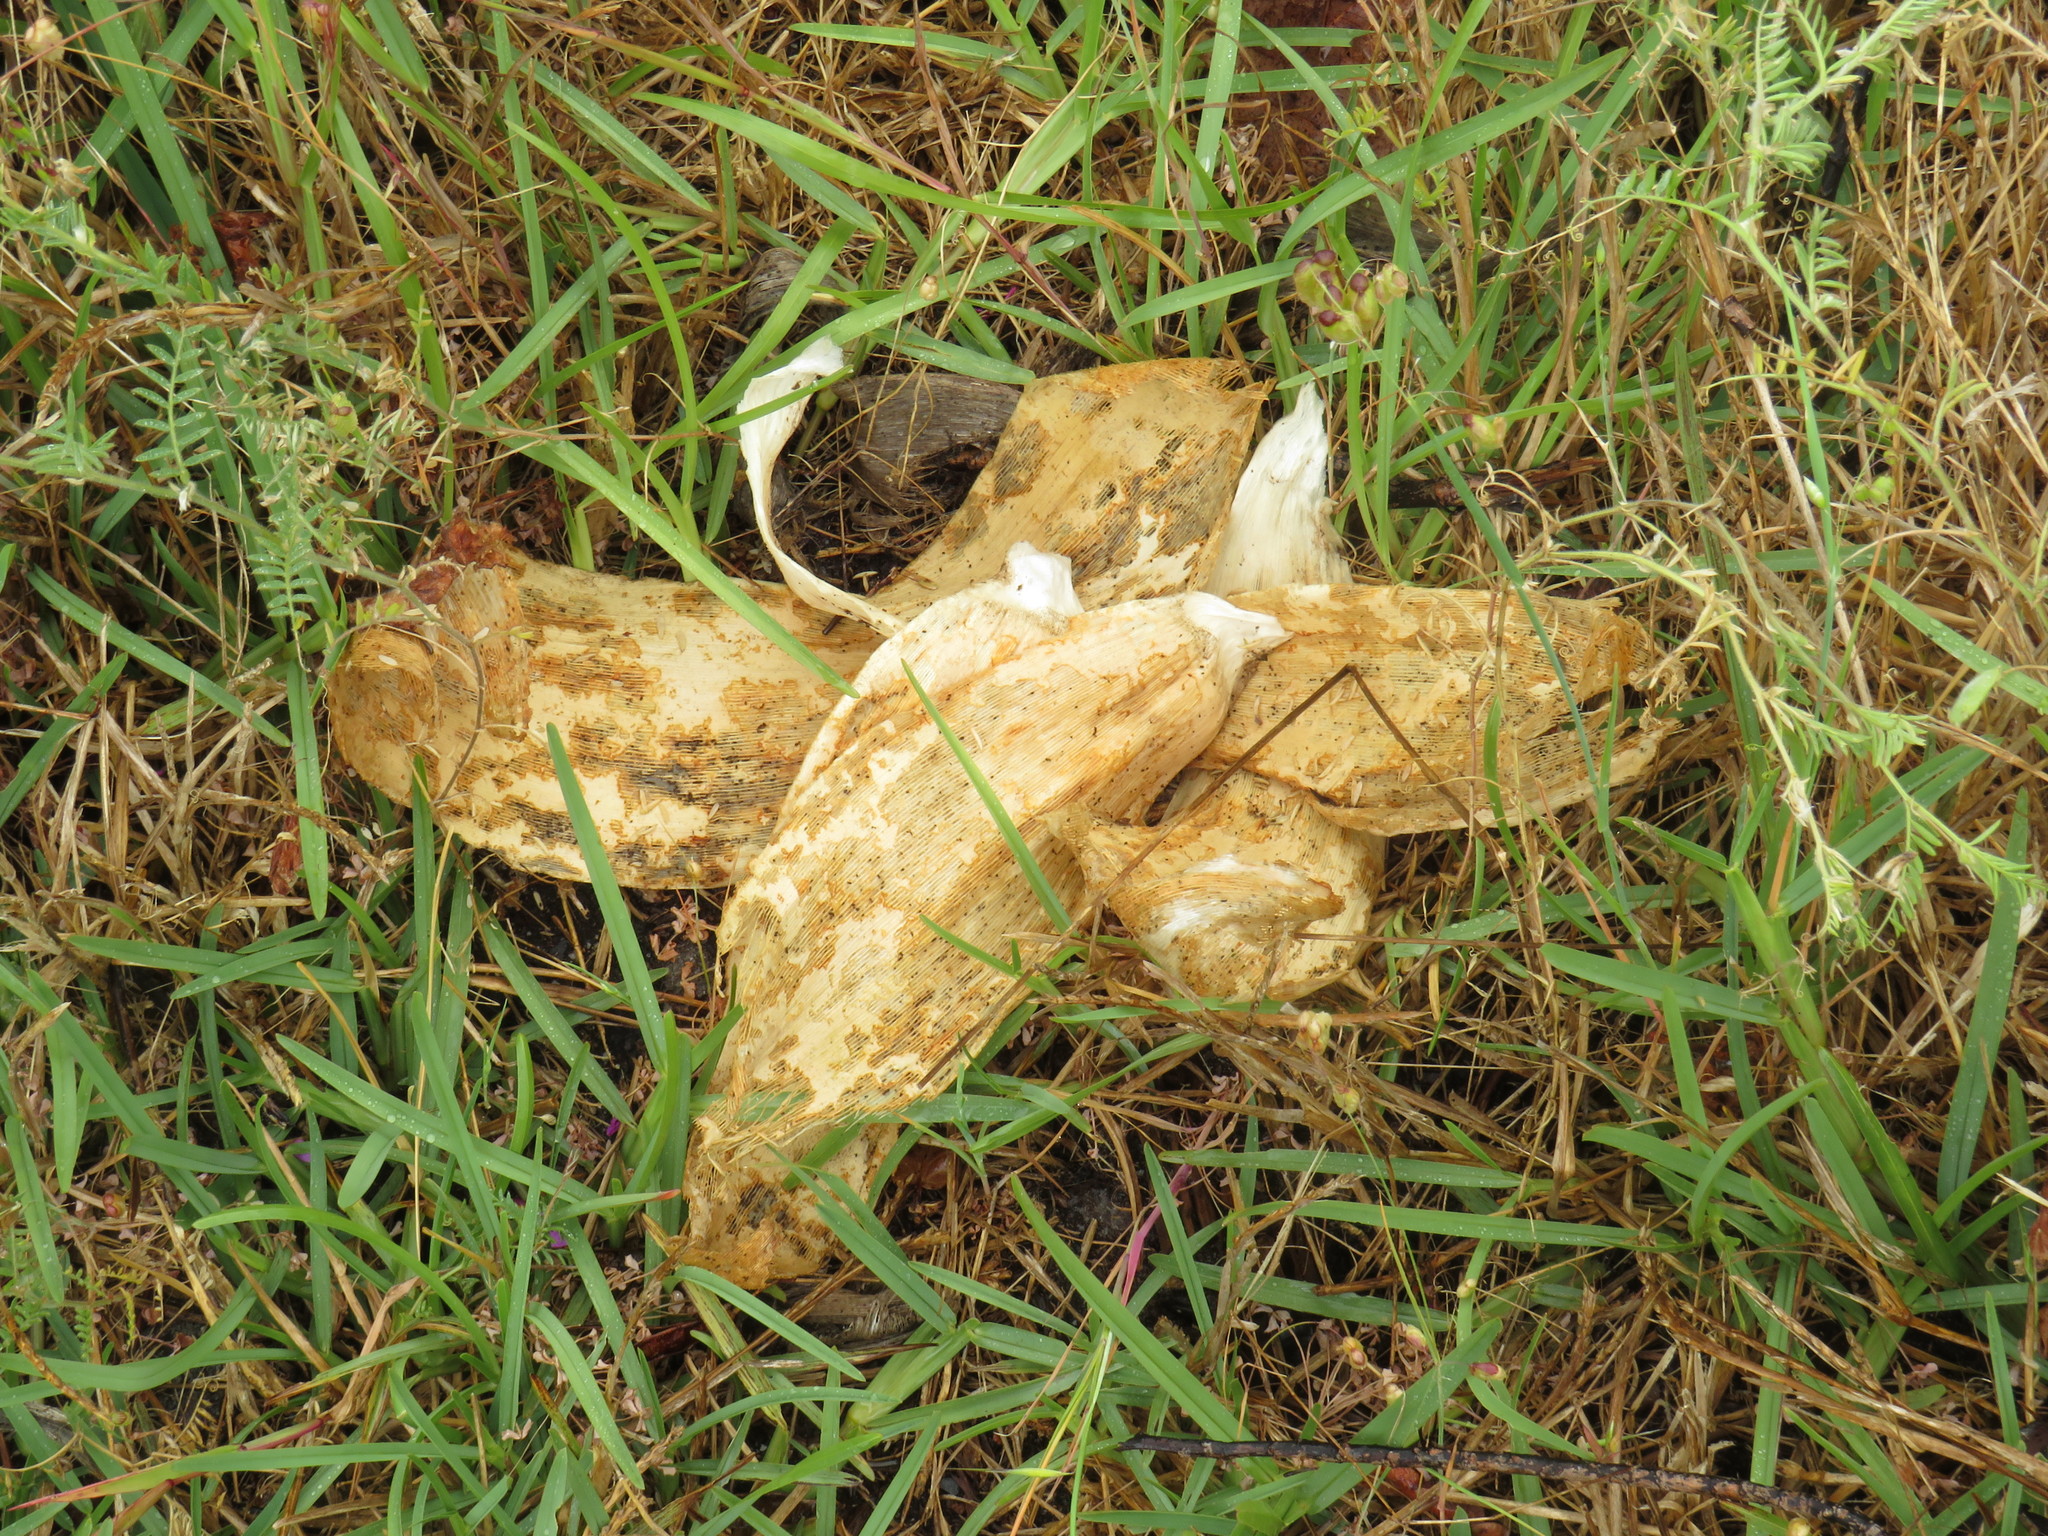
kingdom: Plantae
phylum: Tracheophyta
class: Liliopsida
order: Asparagales
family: Amaryllidaceae
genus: Brunsvigia
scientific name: Brunsvigia orientalis
